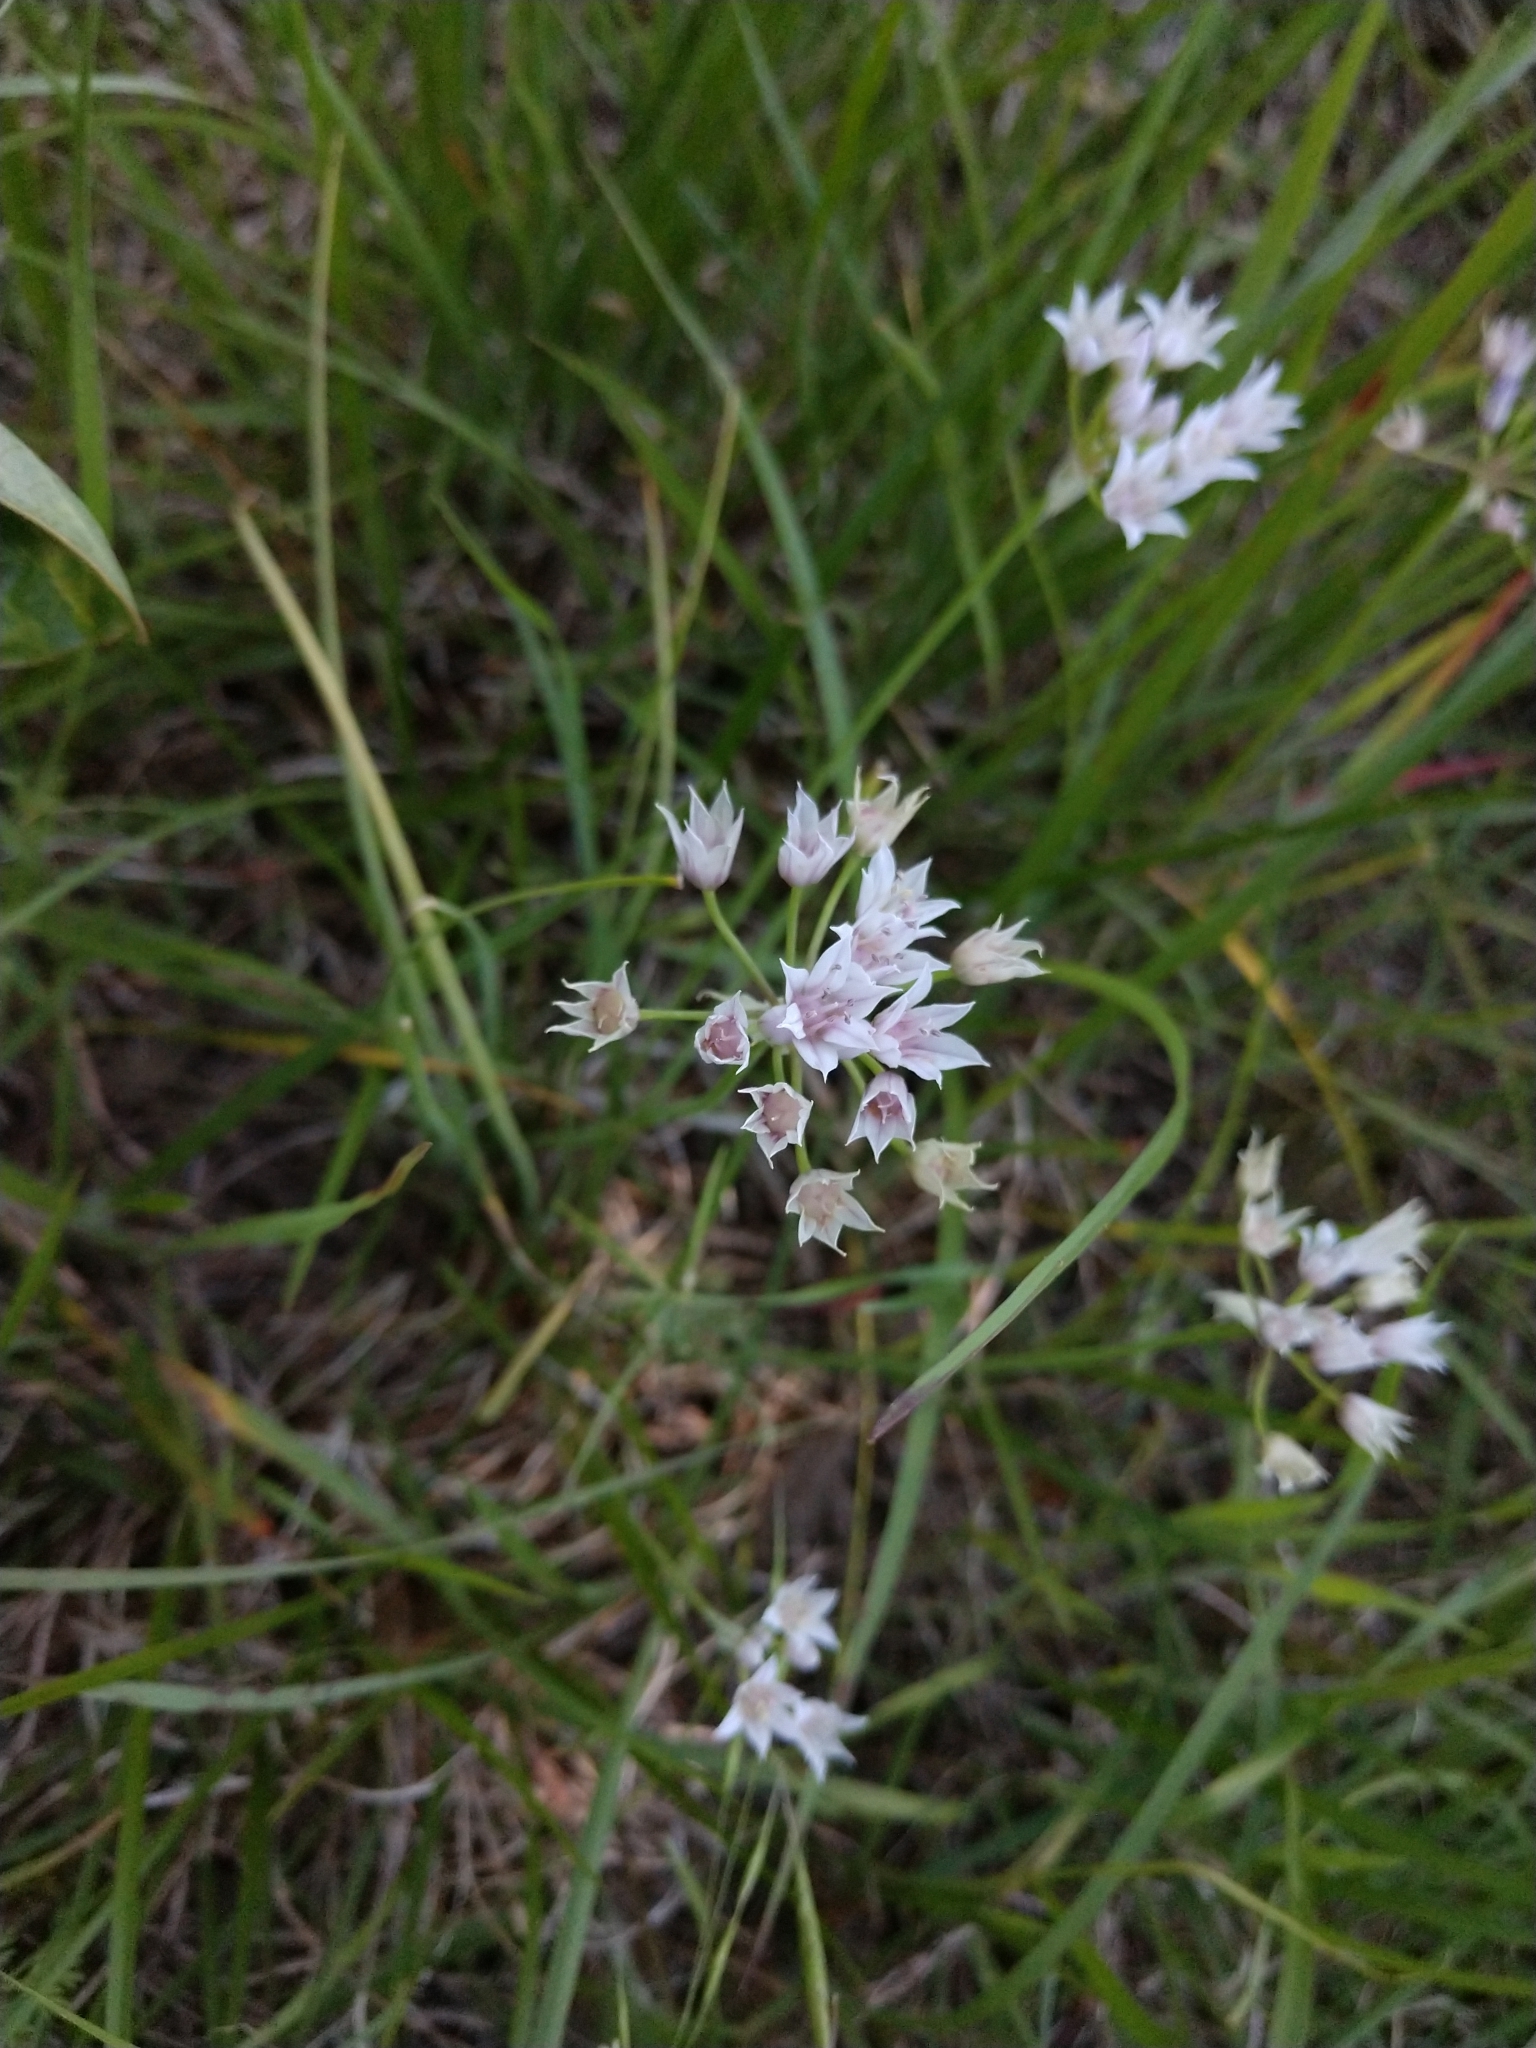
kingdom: Plantae
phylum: Tracheophyta
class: Liliopsida
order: Asparagales
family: Amaryllidaceae
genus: Allium
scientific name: Allium drummondii
